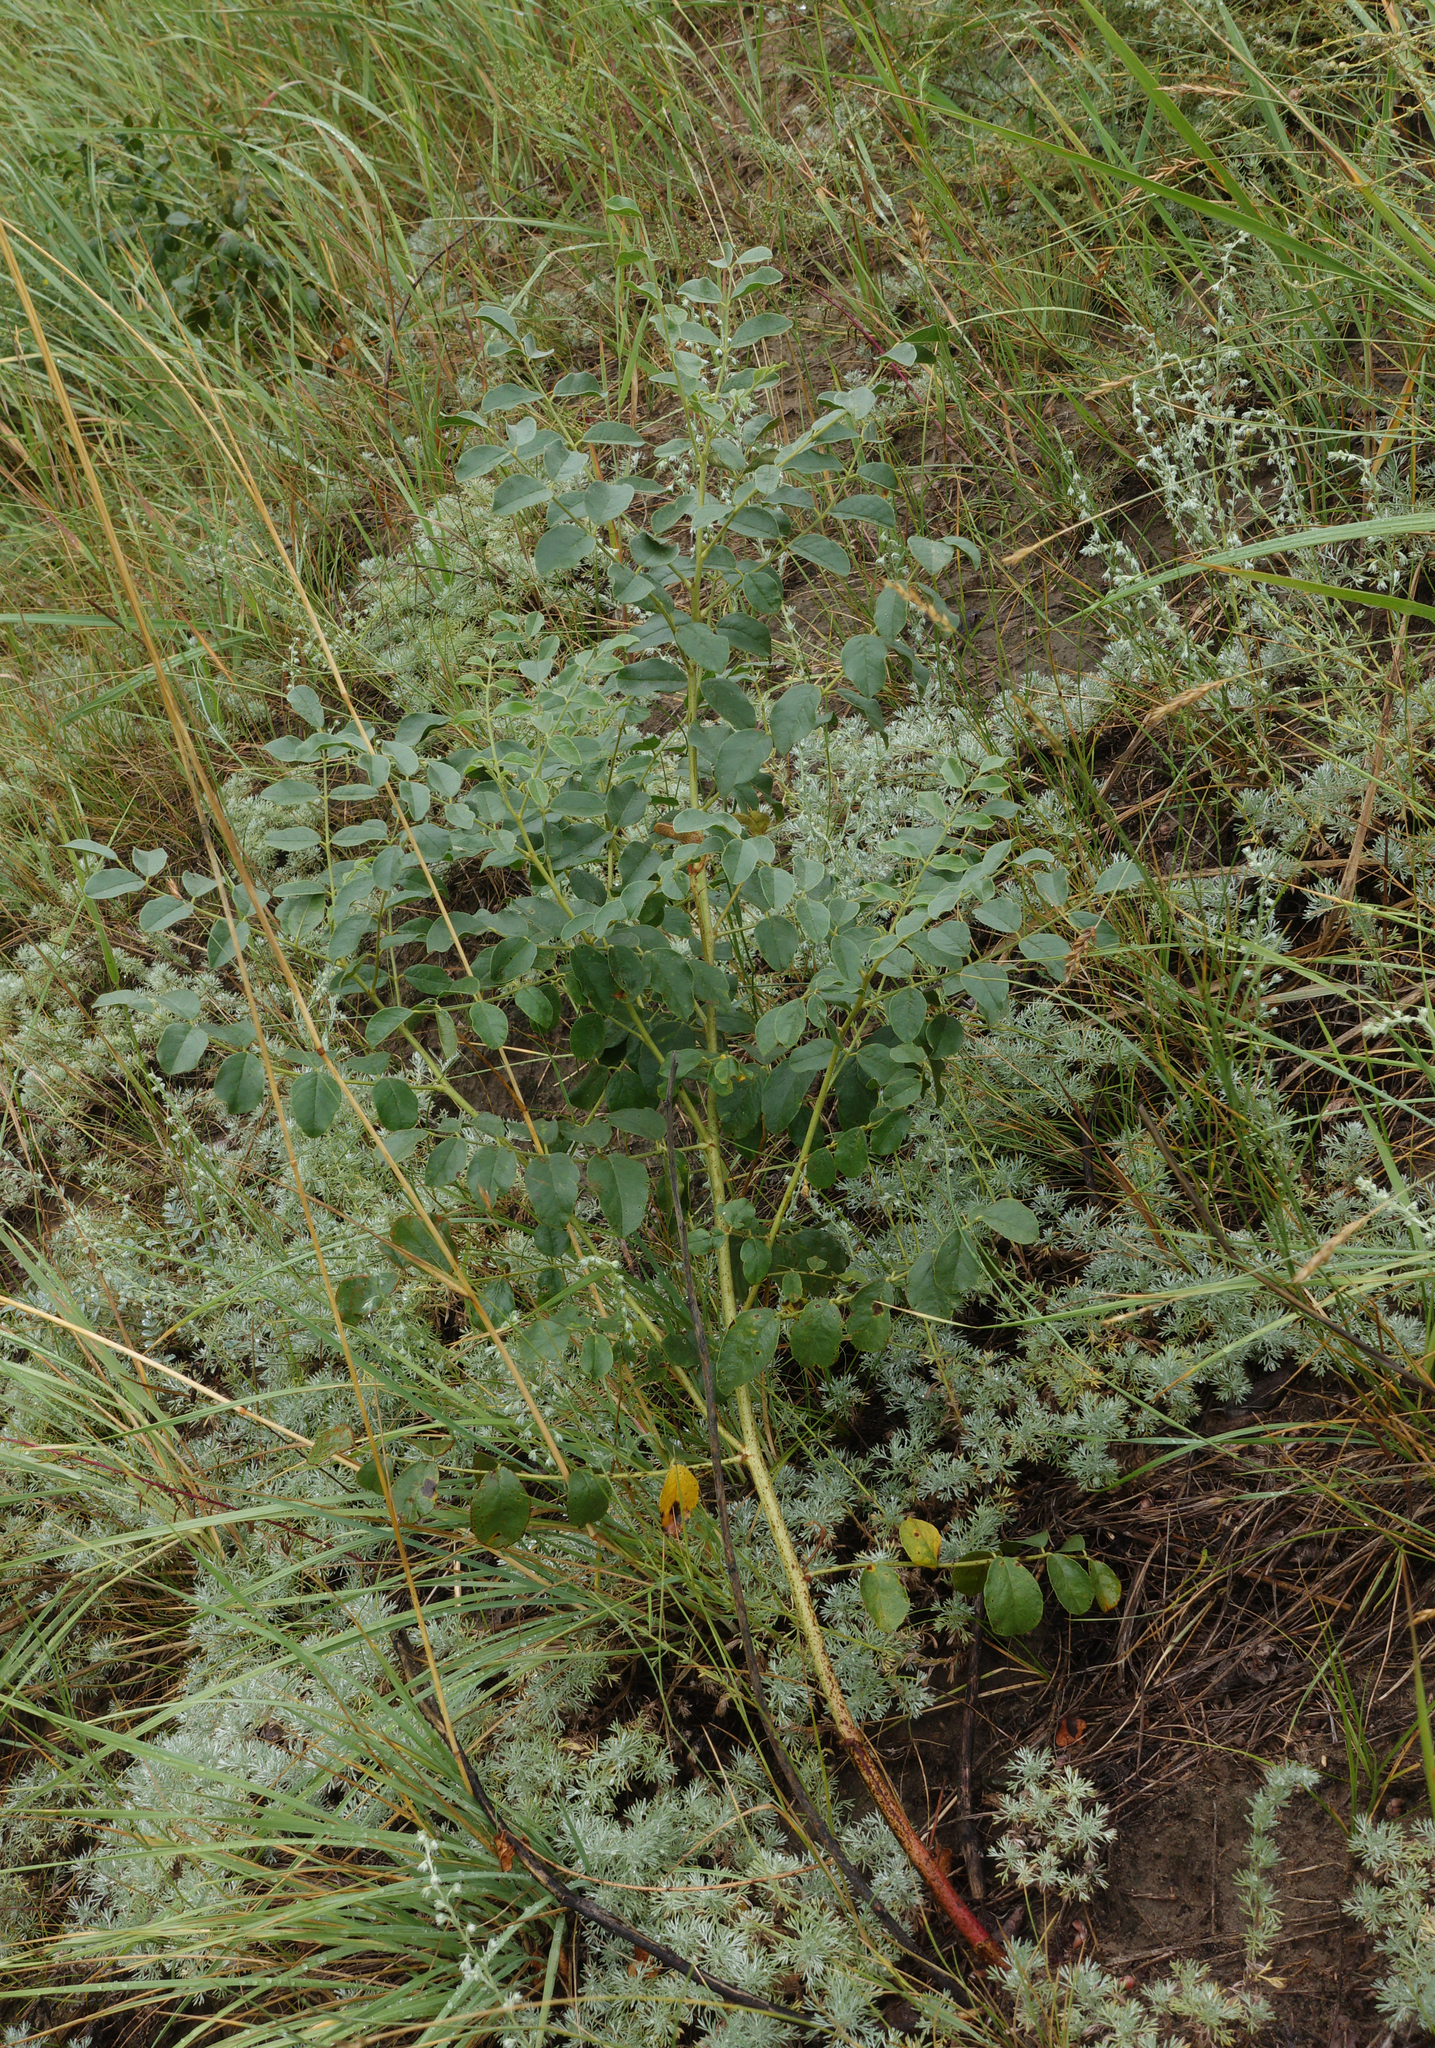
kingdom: Plantae
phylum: Tracheophyta
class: Magnoliopsida
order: Fabales
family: Fabaceae
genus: Glycyrrhiza
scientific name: Glycyrrhiza uralensis
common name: Chinese licorice
